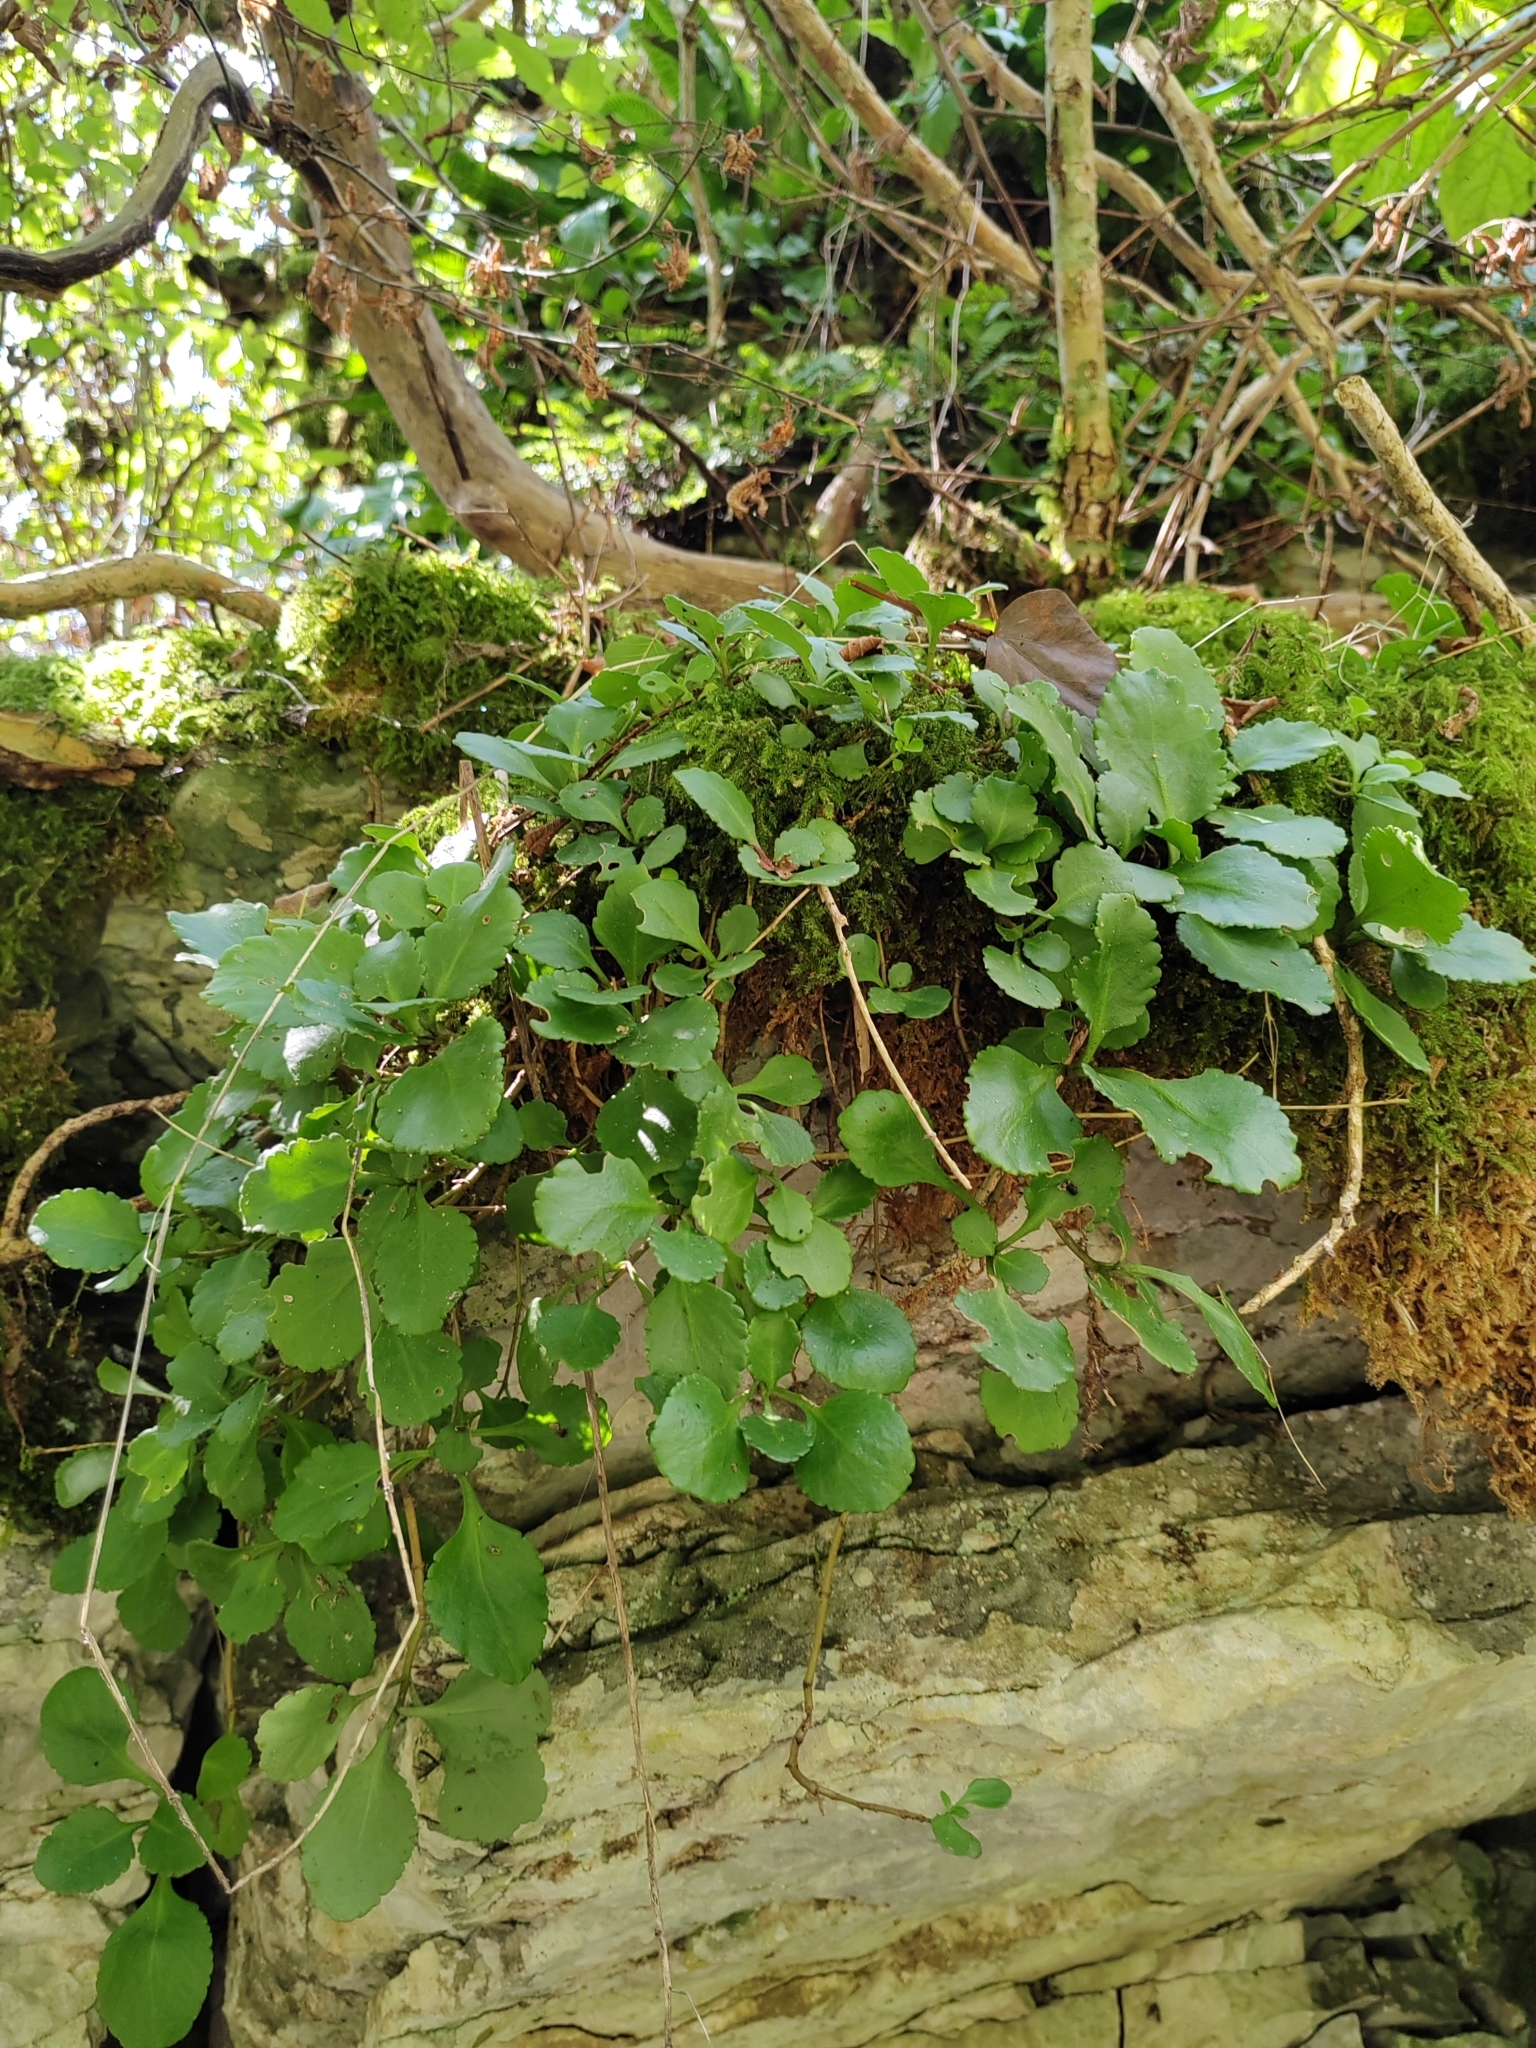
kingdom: Plantae
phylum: Tracheophyta
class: Magnoliopsida
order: Saxifragales
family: Crassulaceae
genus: Umbilicus
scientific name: Umbilicus oppositifolius
